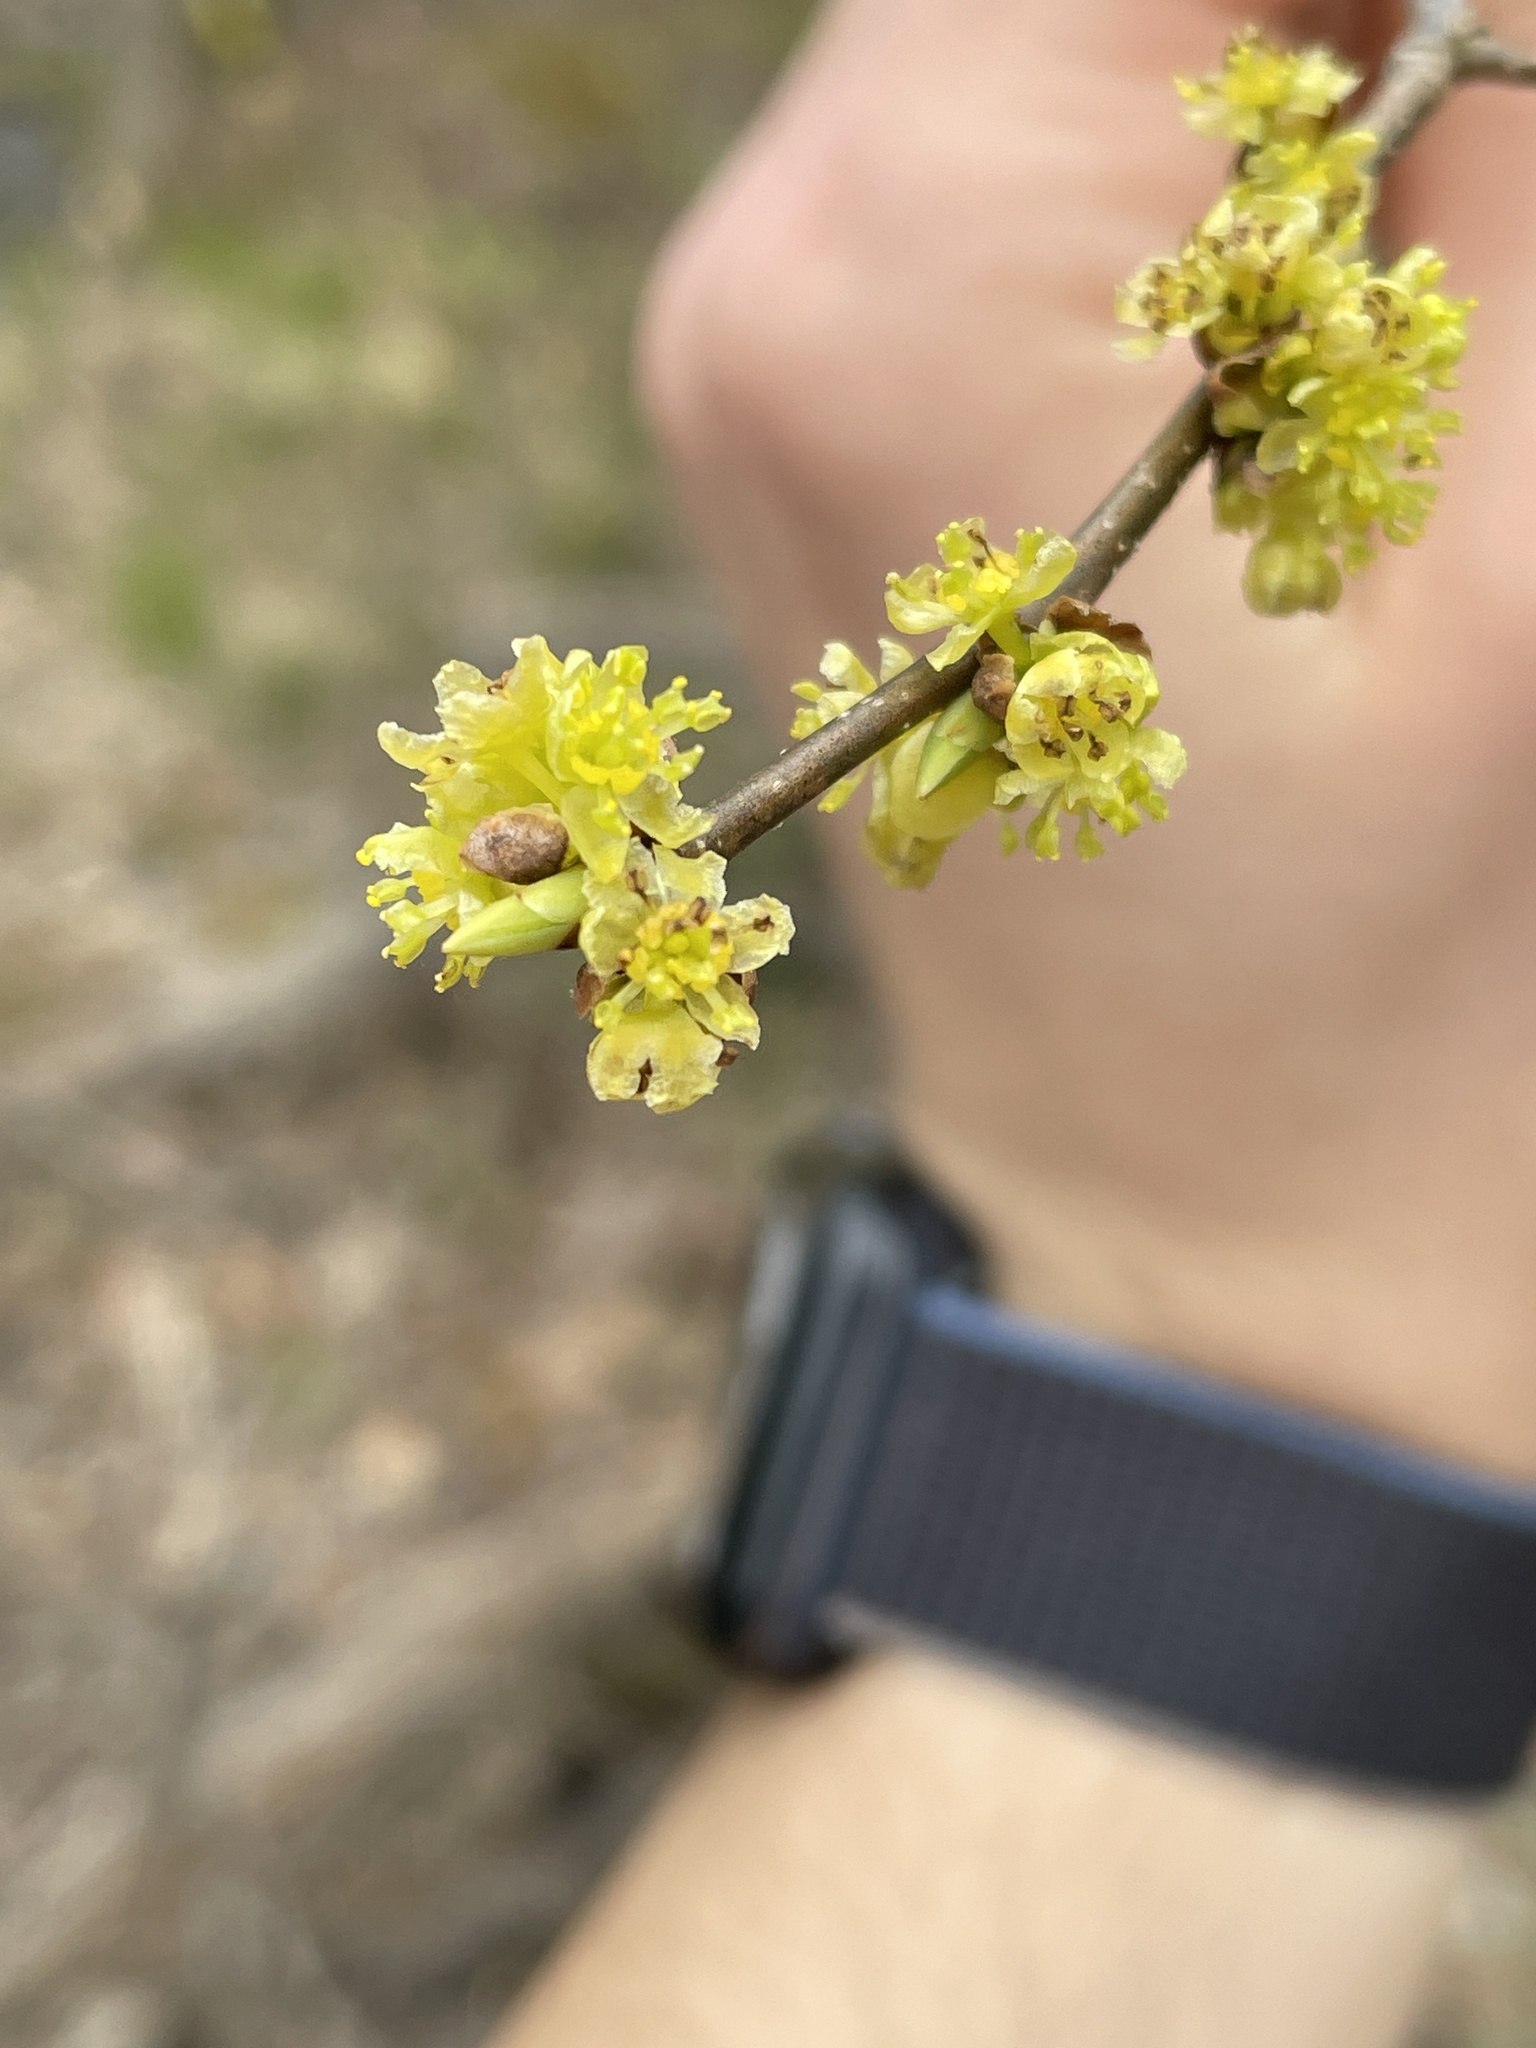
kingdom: Plantae
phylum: Tracheophyta
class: Magnoliopsida
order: Laurales
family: Lauraceae
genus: Lindera
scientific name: Lindera benzoin
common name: Spicebush
